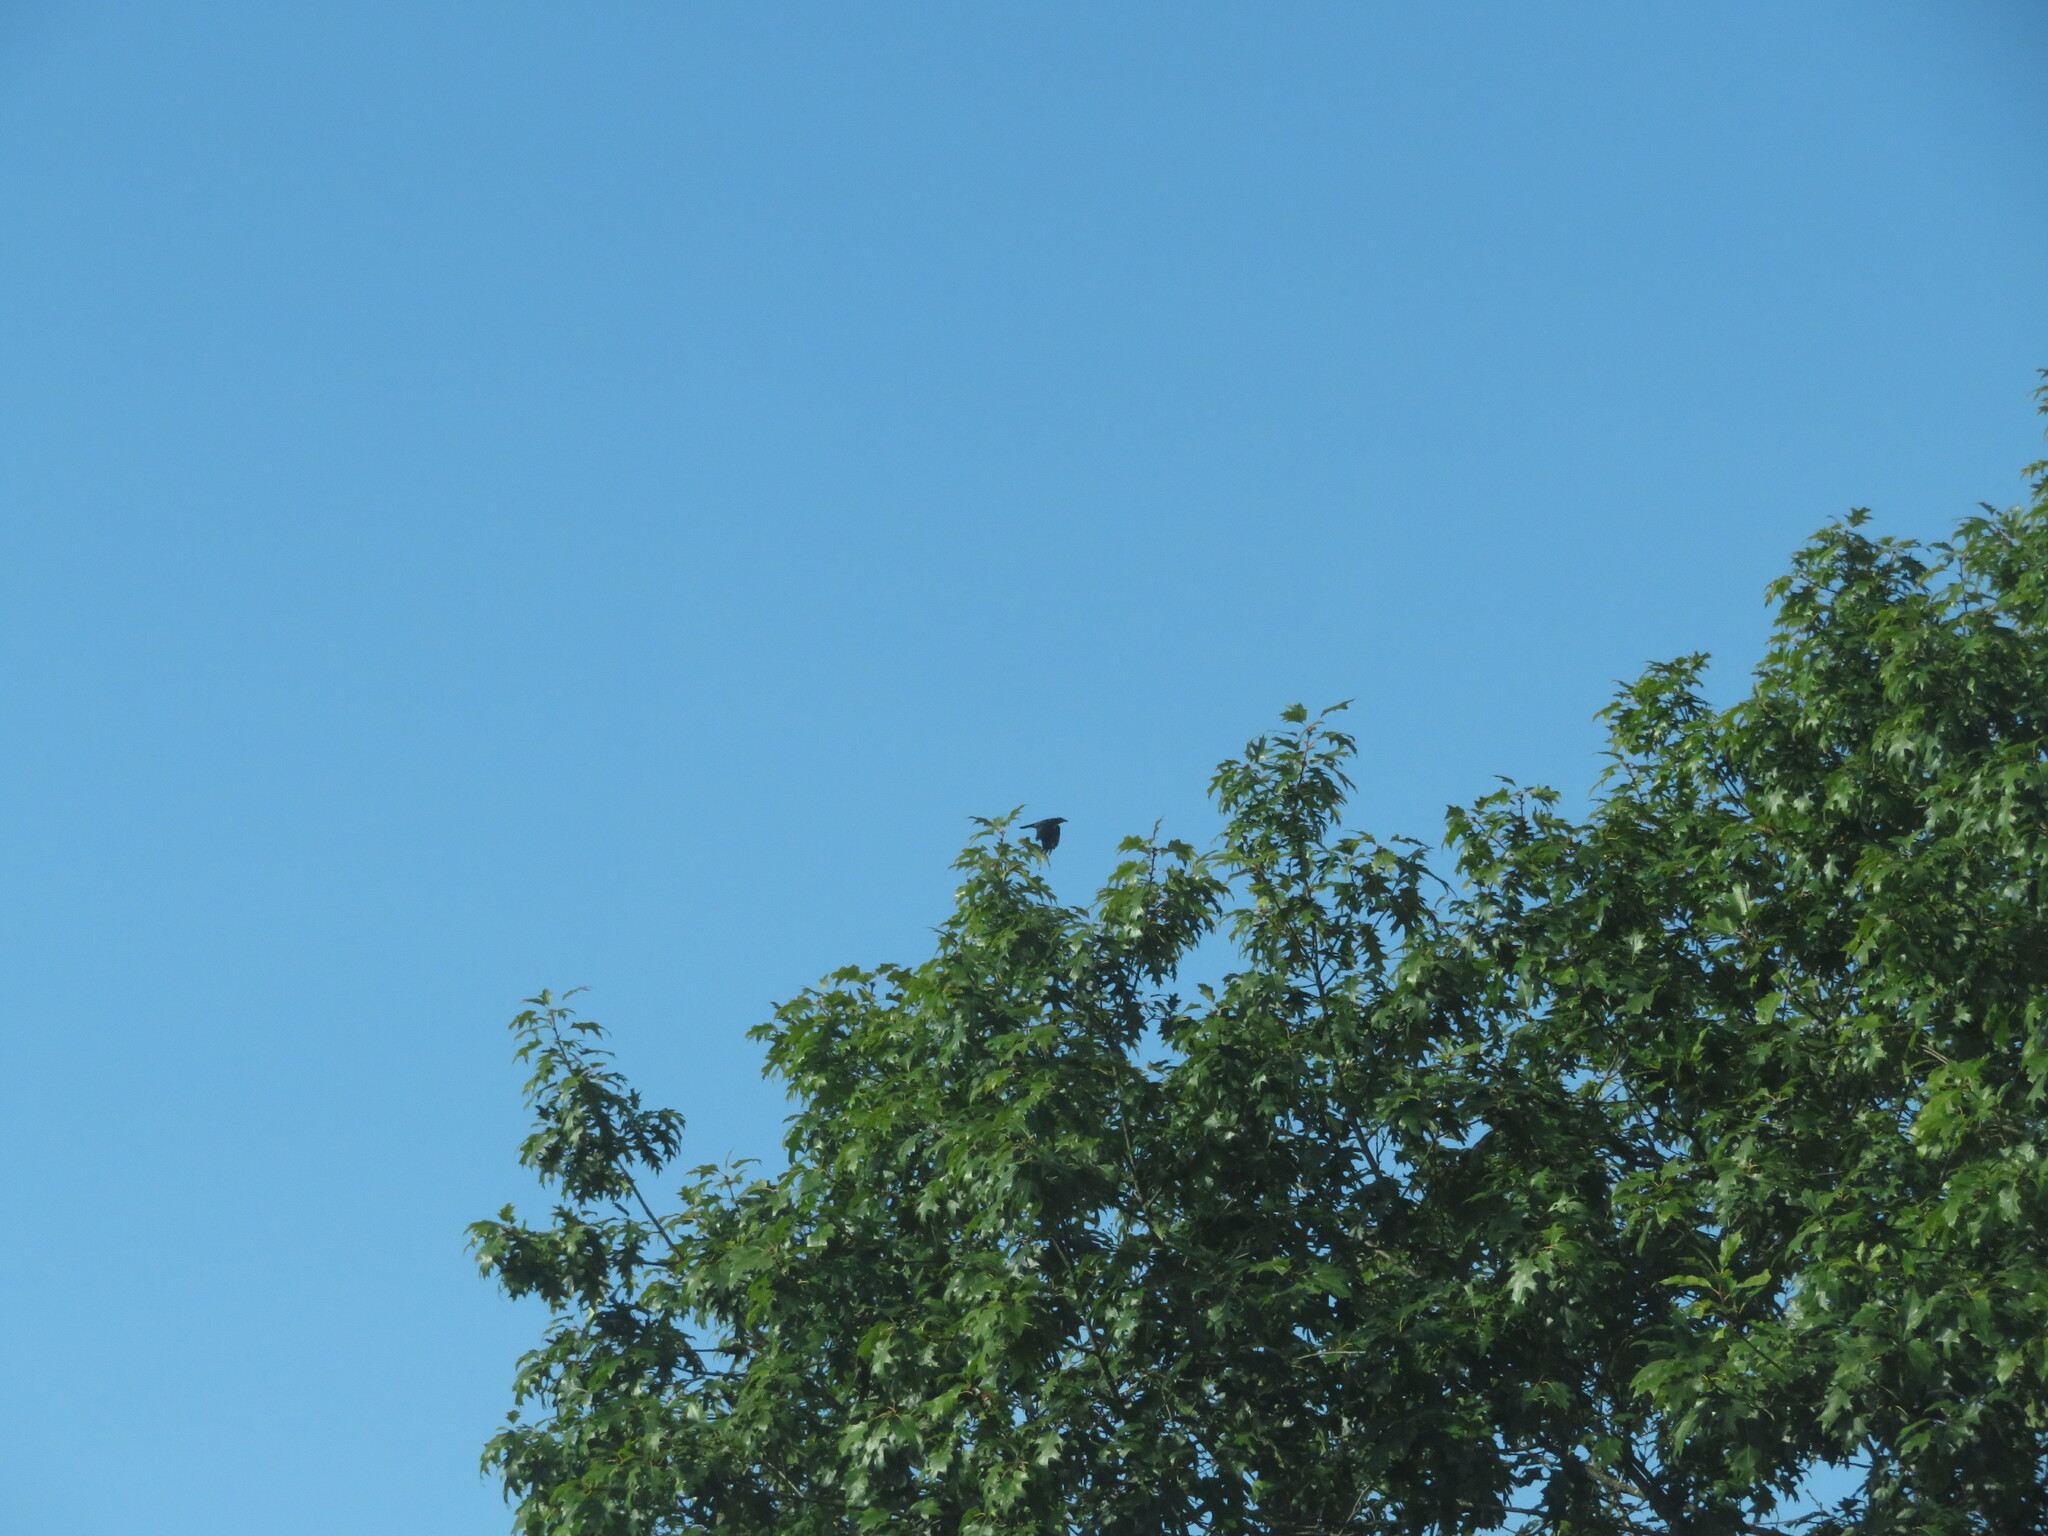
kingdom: Animalia
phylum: Chordata
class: Aves
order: Passeriformes
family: Corvidae
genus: Corvus
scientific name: Corvus corone
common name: Carrion crow
